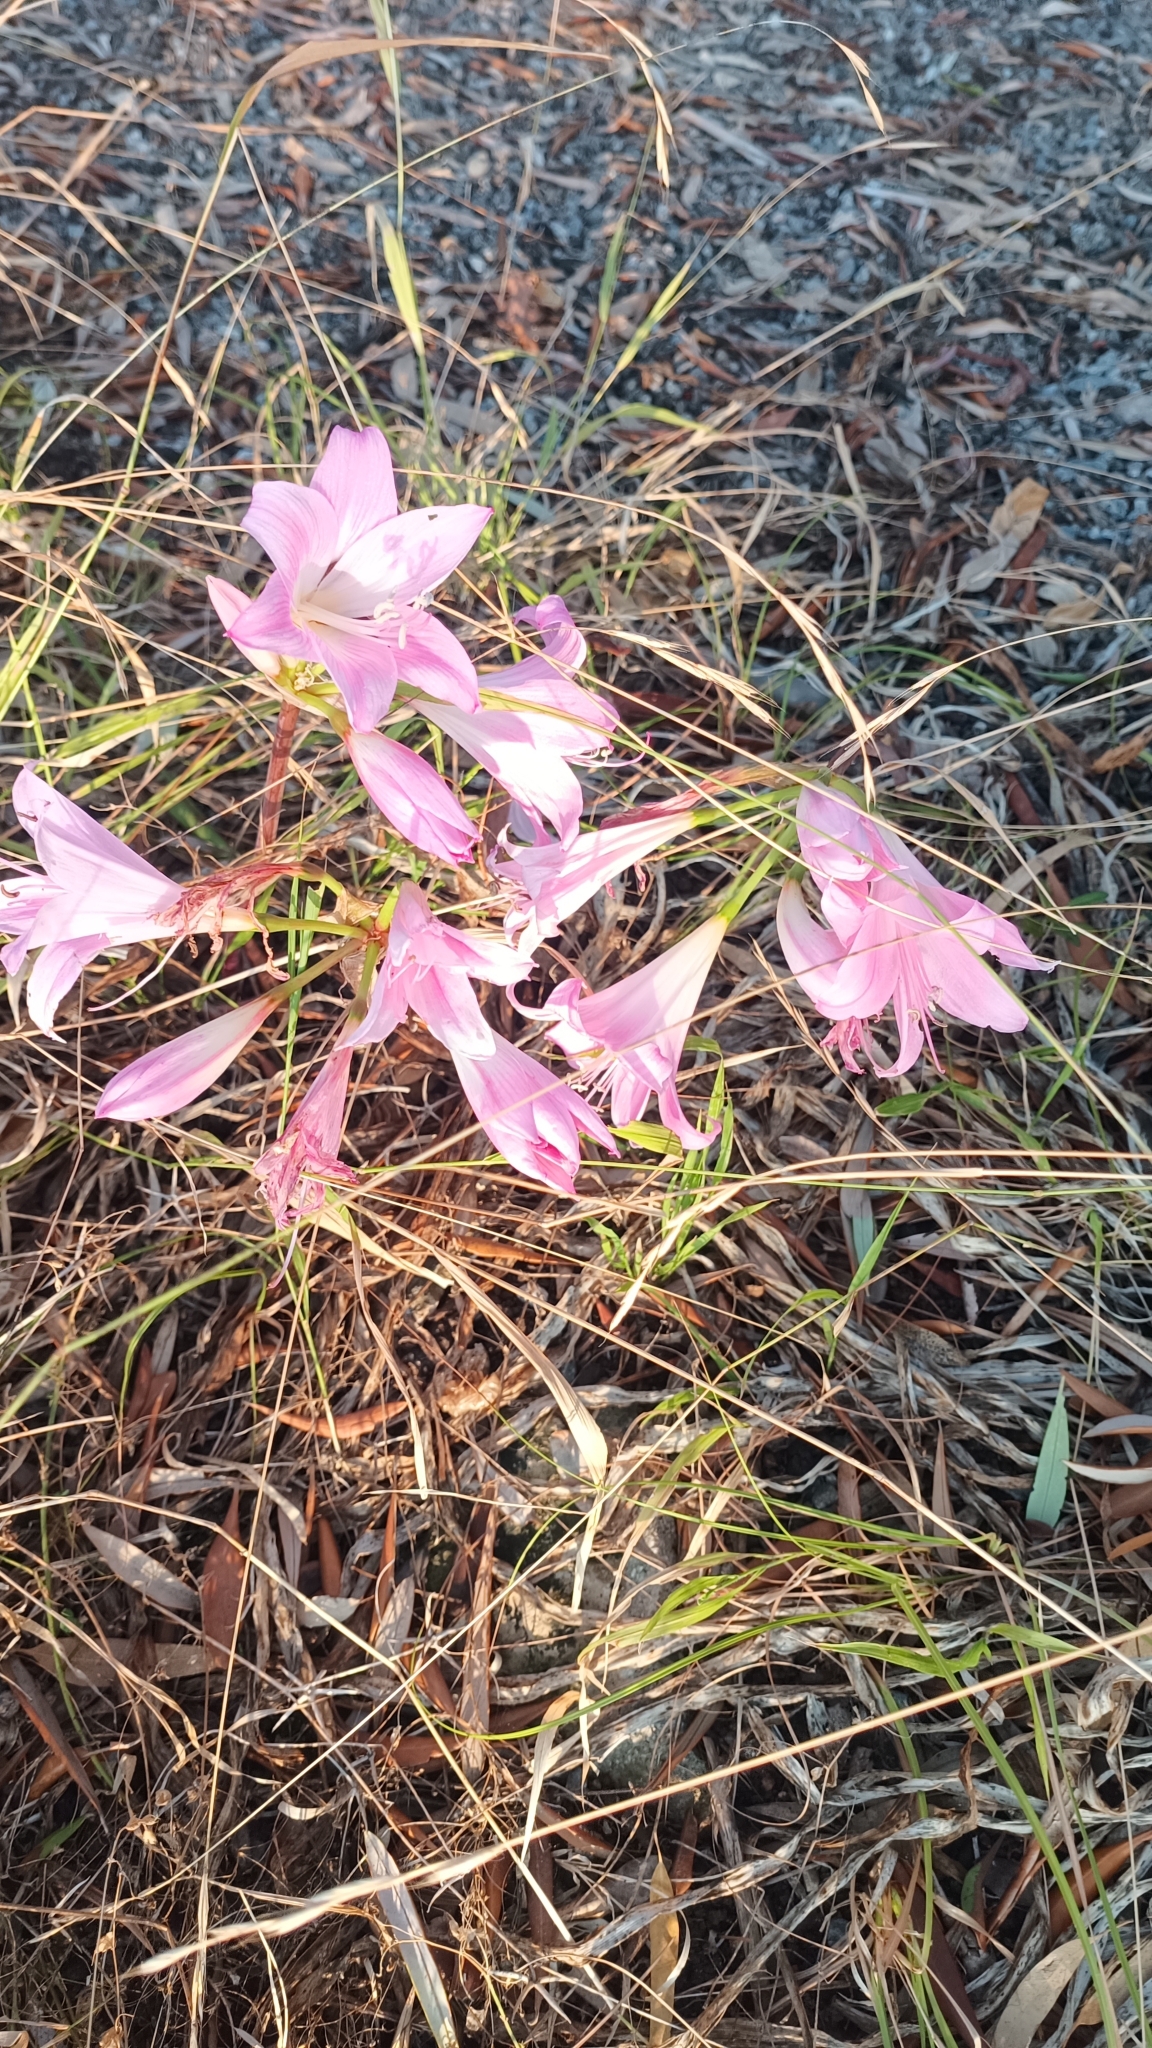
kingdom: Plantae
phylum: Tracheophyta
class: Liliopsida
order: Asparagales
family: Amaryllidaceae
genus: Amaryllis
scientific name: Amaryllis belladonna
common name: Jersey lily
